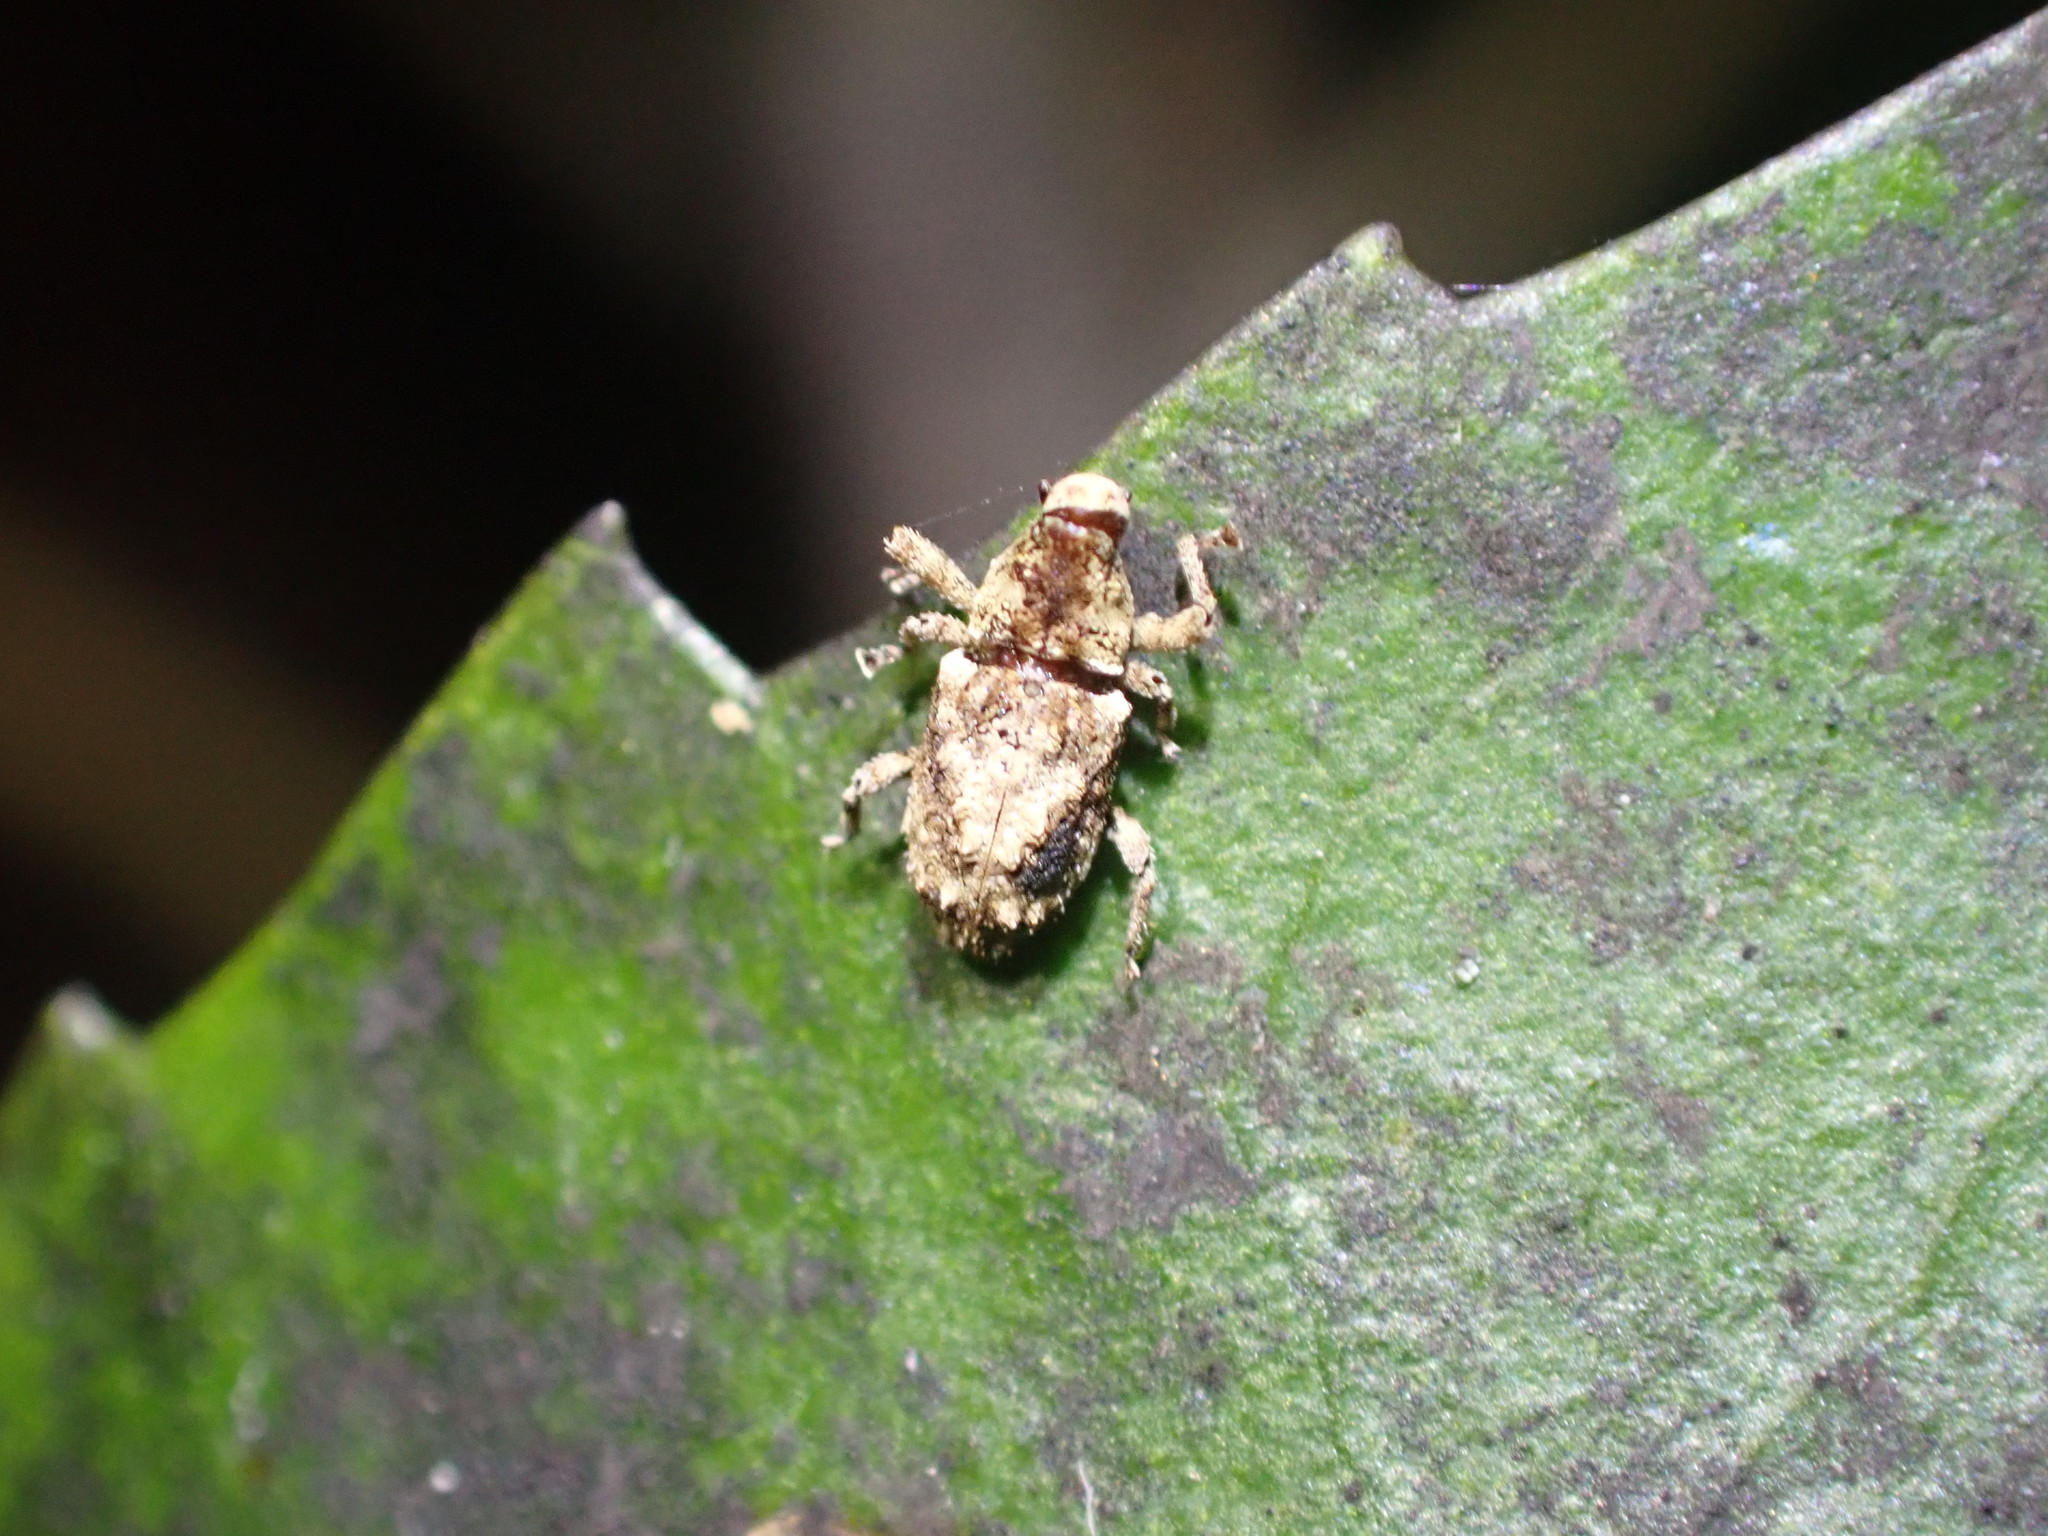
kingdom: Animalia
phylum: Arthropoda
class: Insecta
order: Coleoptera
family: Curculionidae
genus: Mecistostylus
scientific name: Mecistostylus douei
